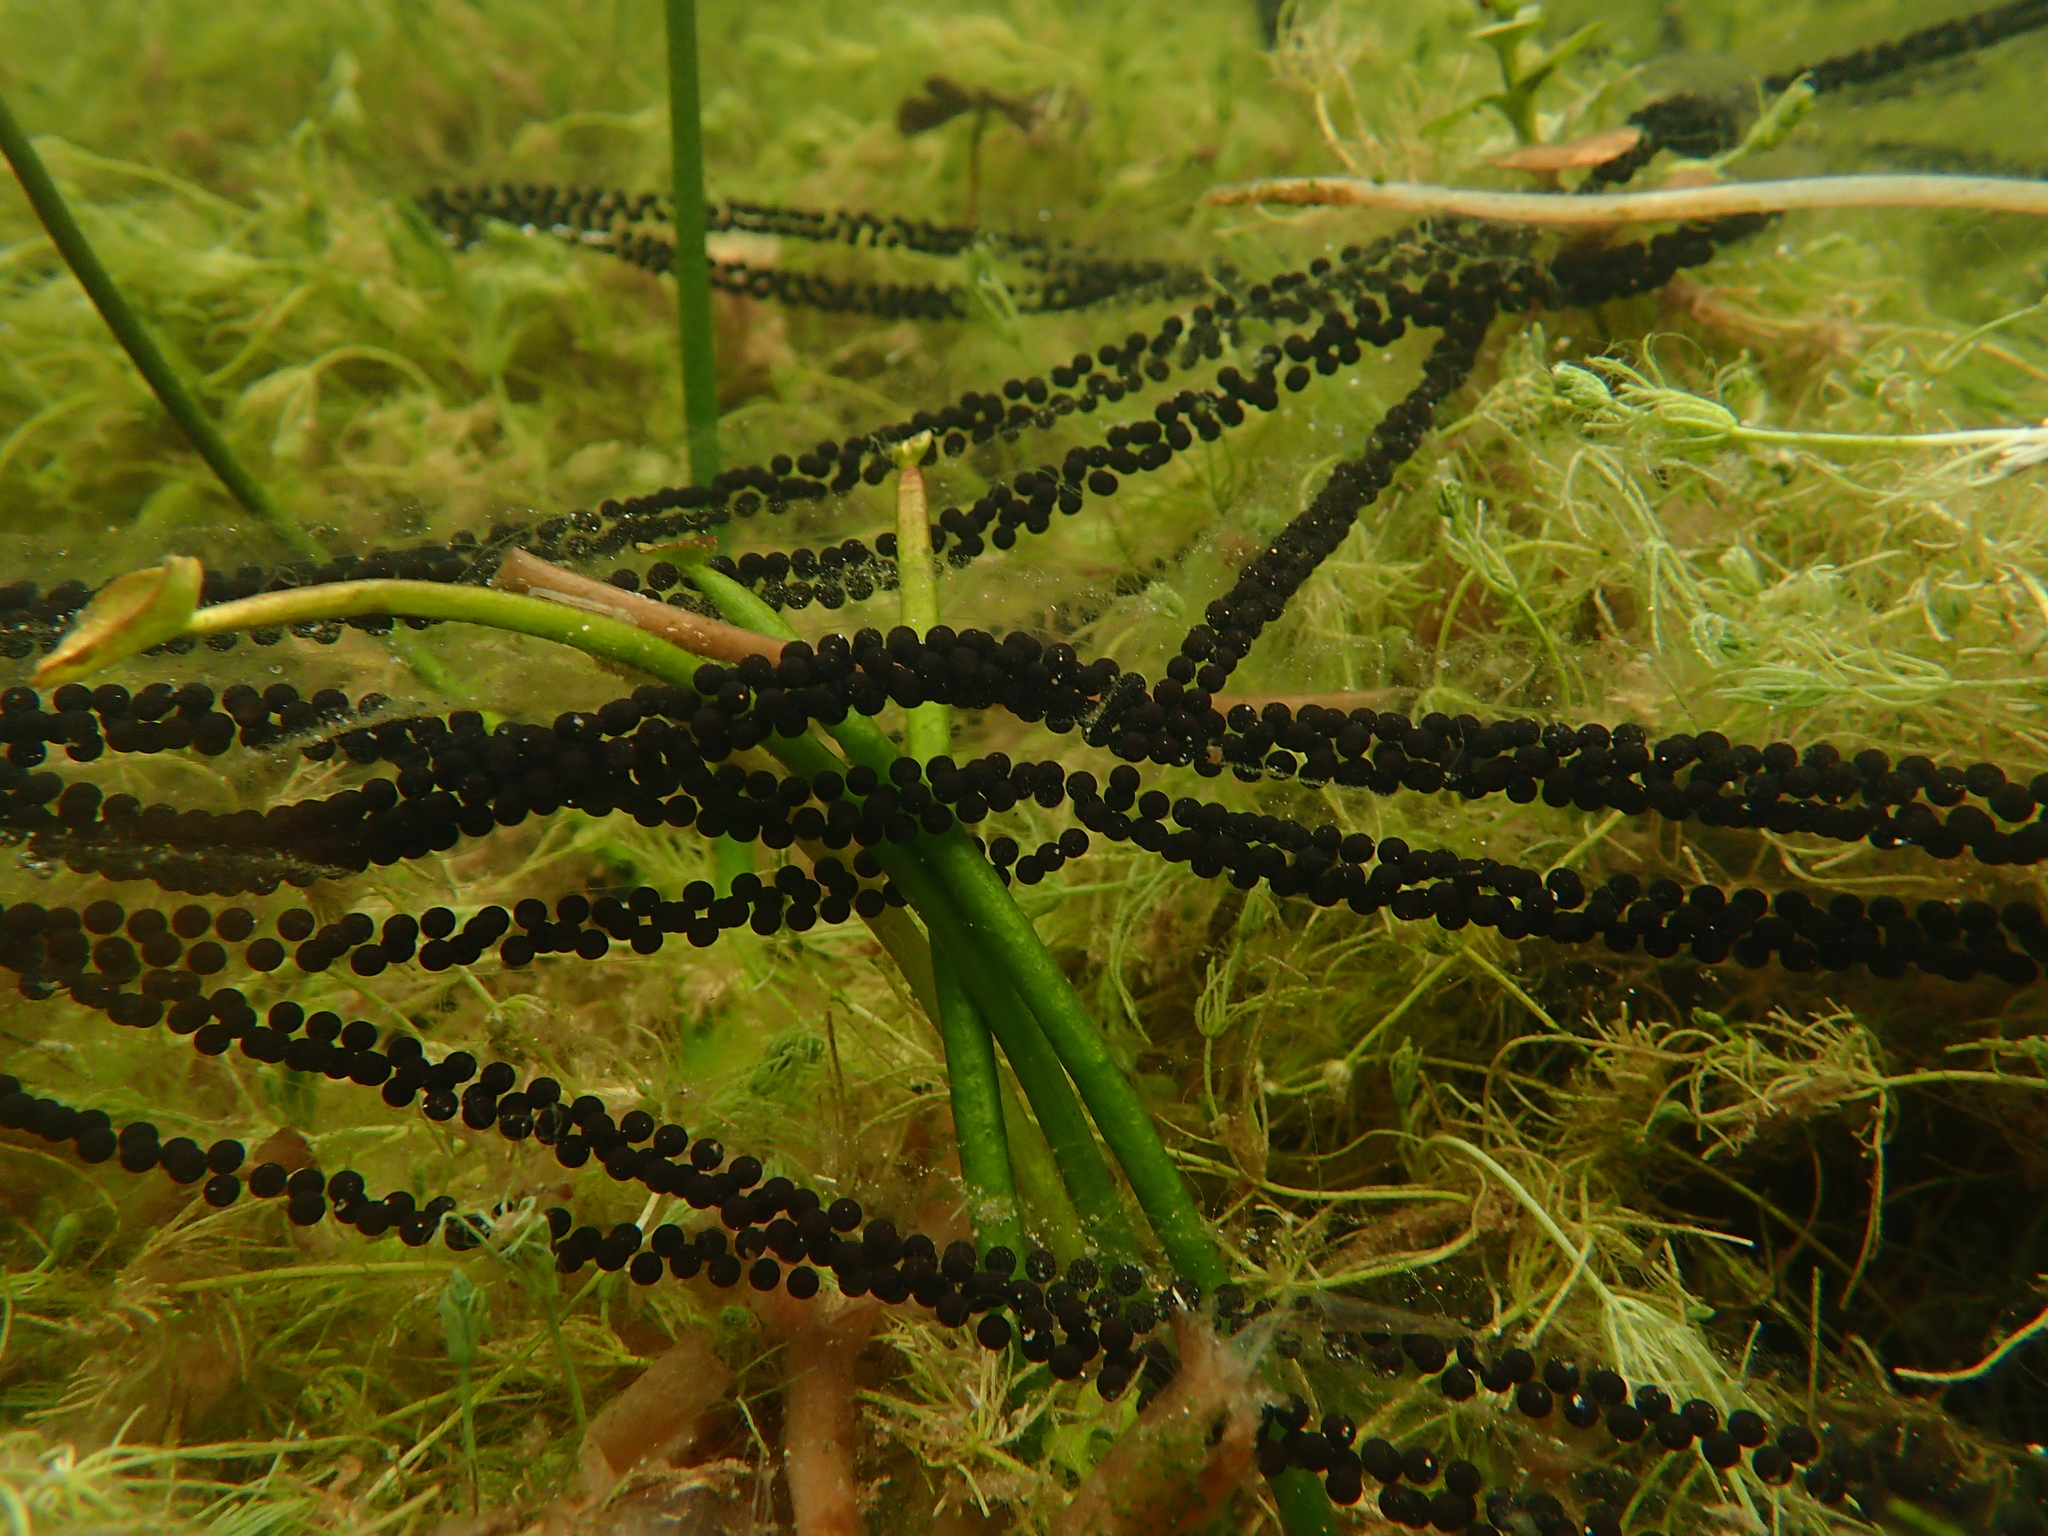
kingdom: Animalia
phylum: Chordata
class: Amphibia
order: Anura
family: Bufonidae
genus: Bufo
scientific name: Bufo bufo
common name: Common toad
